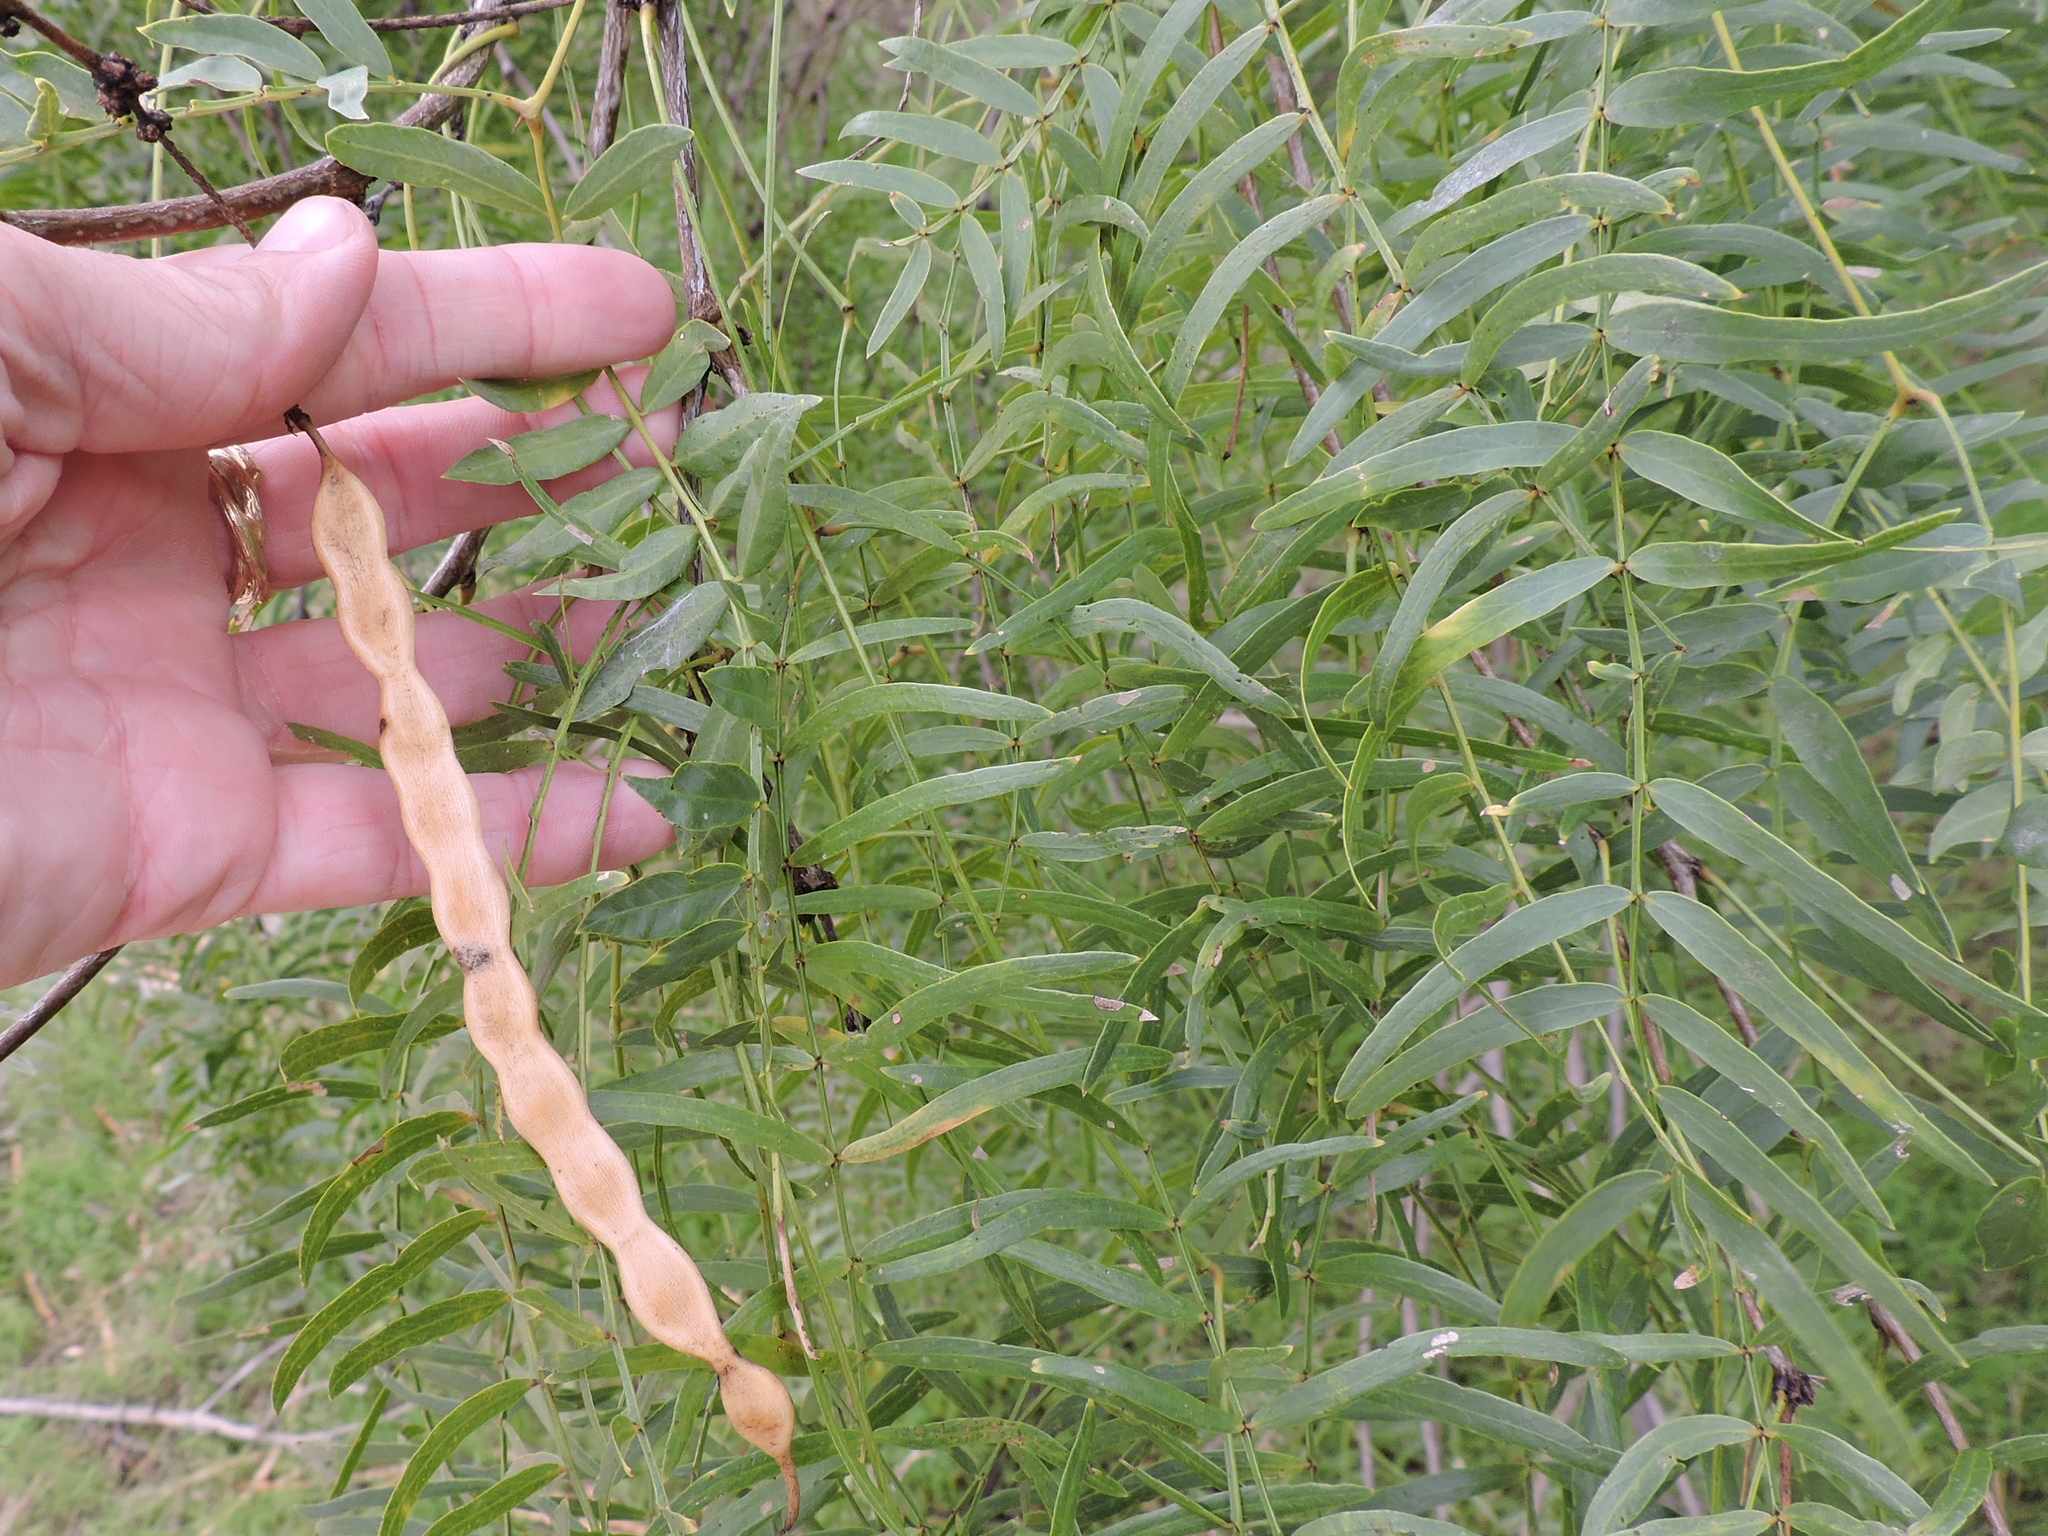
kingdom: Plantae
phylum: Tracheophyta
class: Magnoliopsida
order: Fabales
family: Fabaceae
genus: Prosopis
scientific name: Prosopis glandulosa
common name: Honey mesquite
